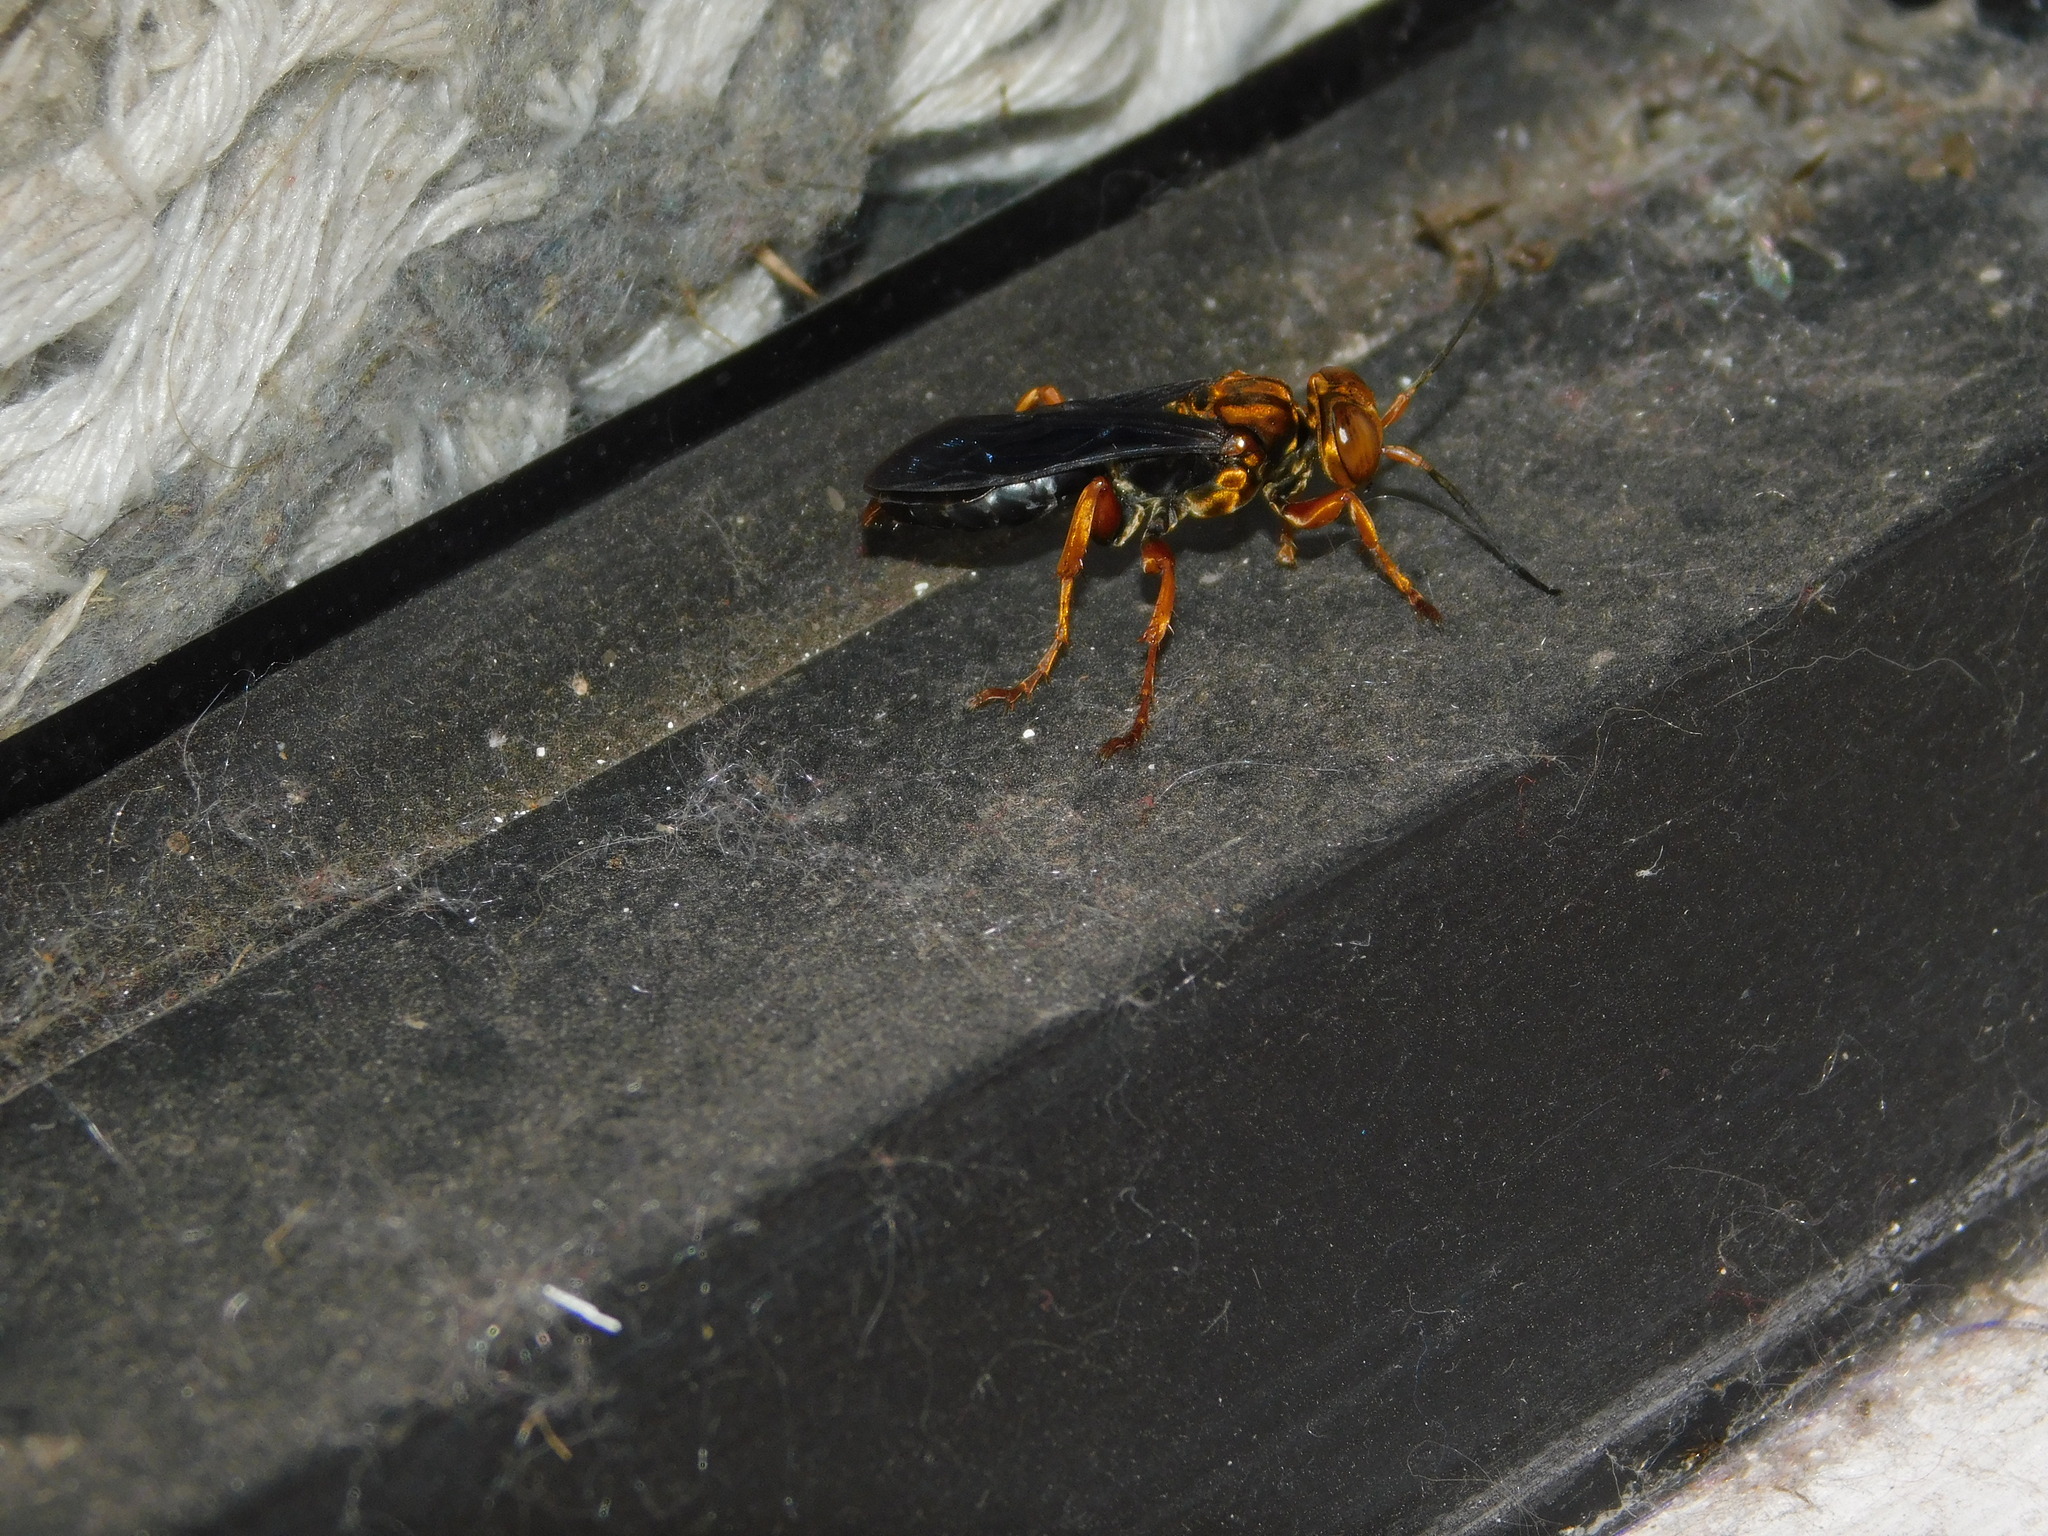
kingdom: Animalia
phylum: Arthropoda
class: Insecta
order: Hymenoptera
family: Crabronidae
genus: Liris
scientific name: Liris aurulentus
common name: Golden cricket wasp
